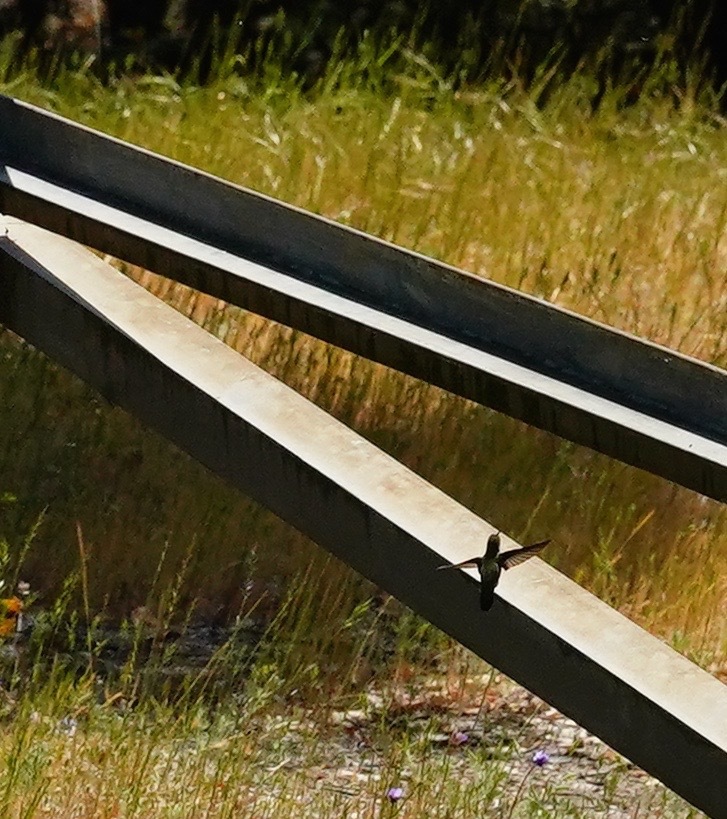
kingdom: Animalia
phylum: Chordata
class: Aves
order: Apodiformes
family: Trochilidae
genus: Calypte
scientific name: Calypte anna
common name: Anna's hummingbird
